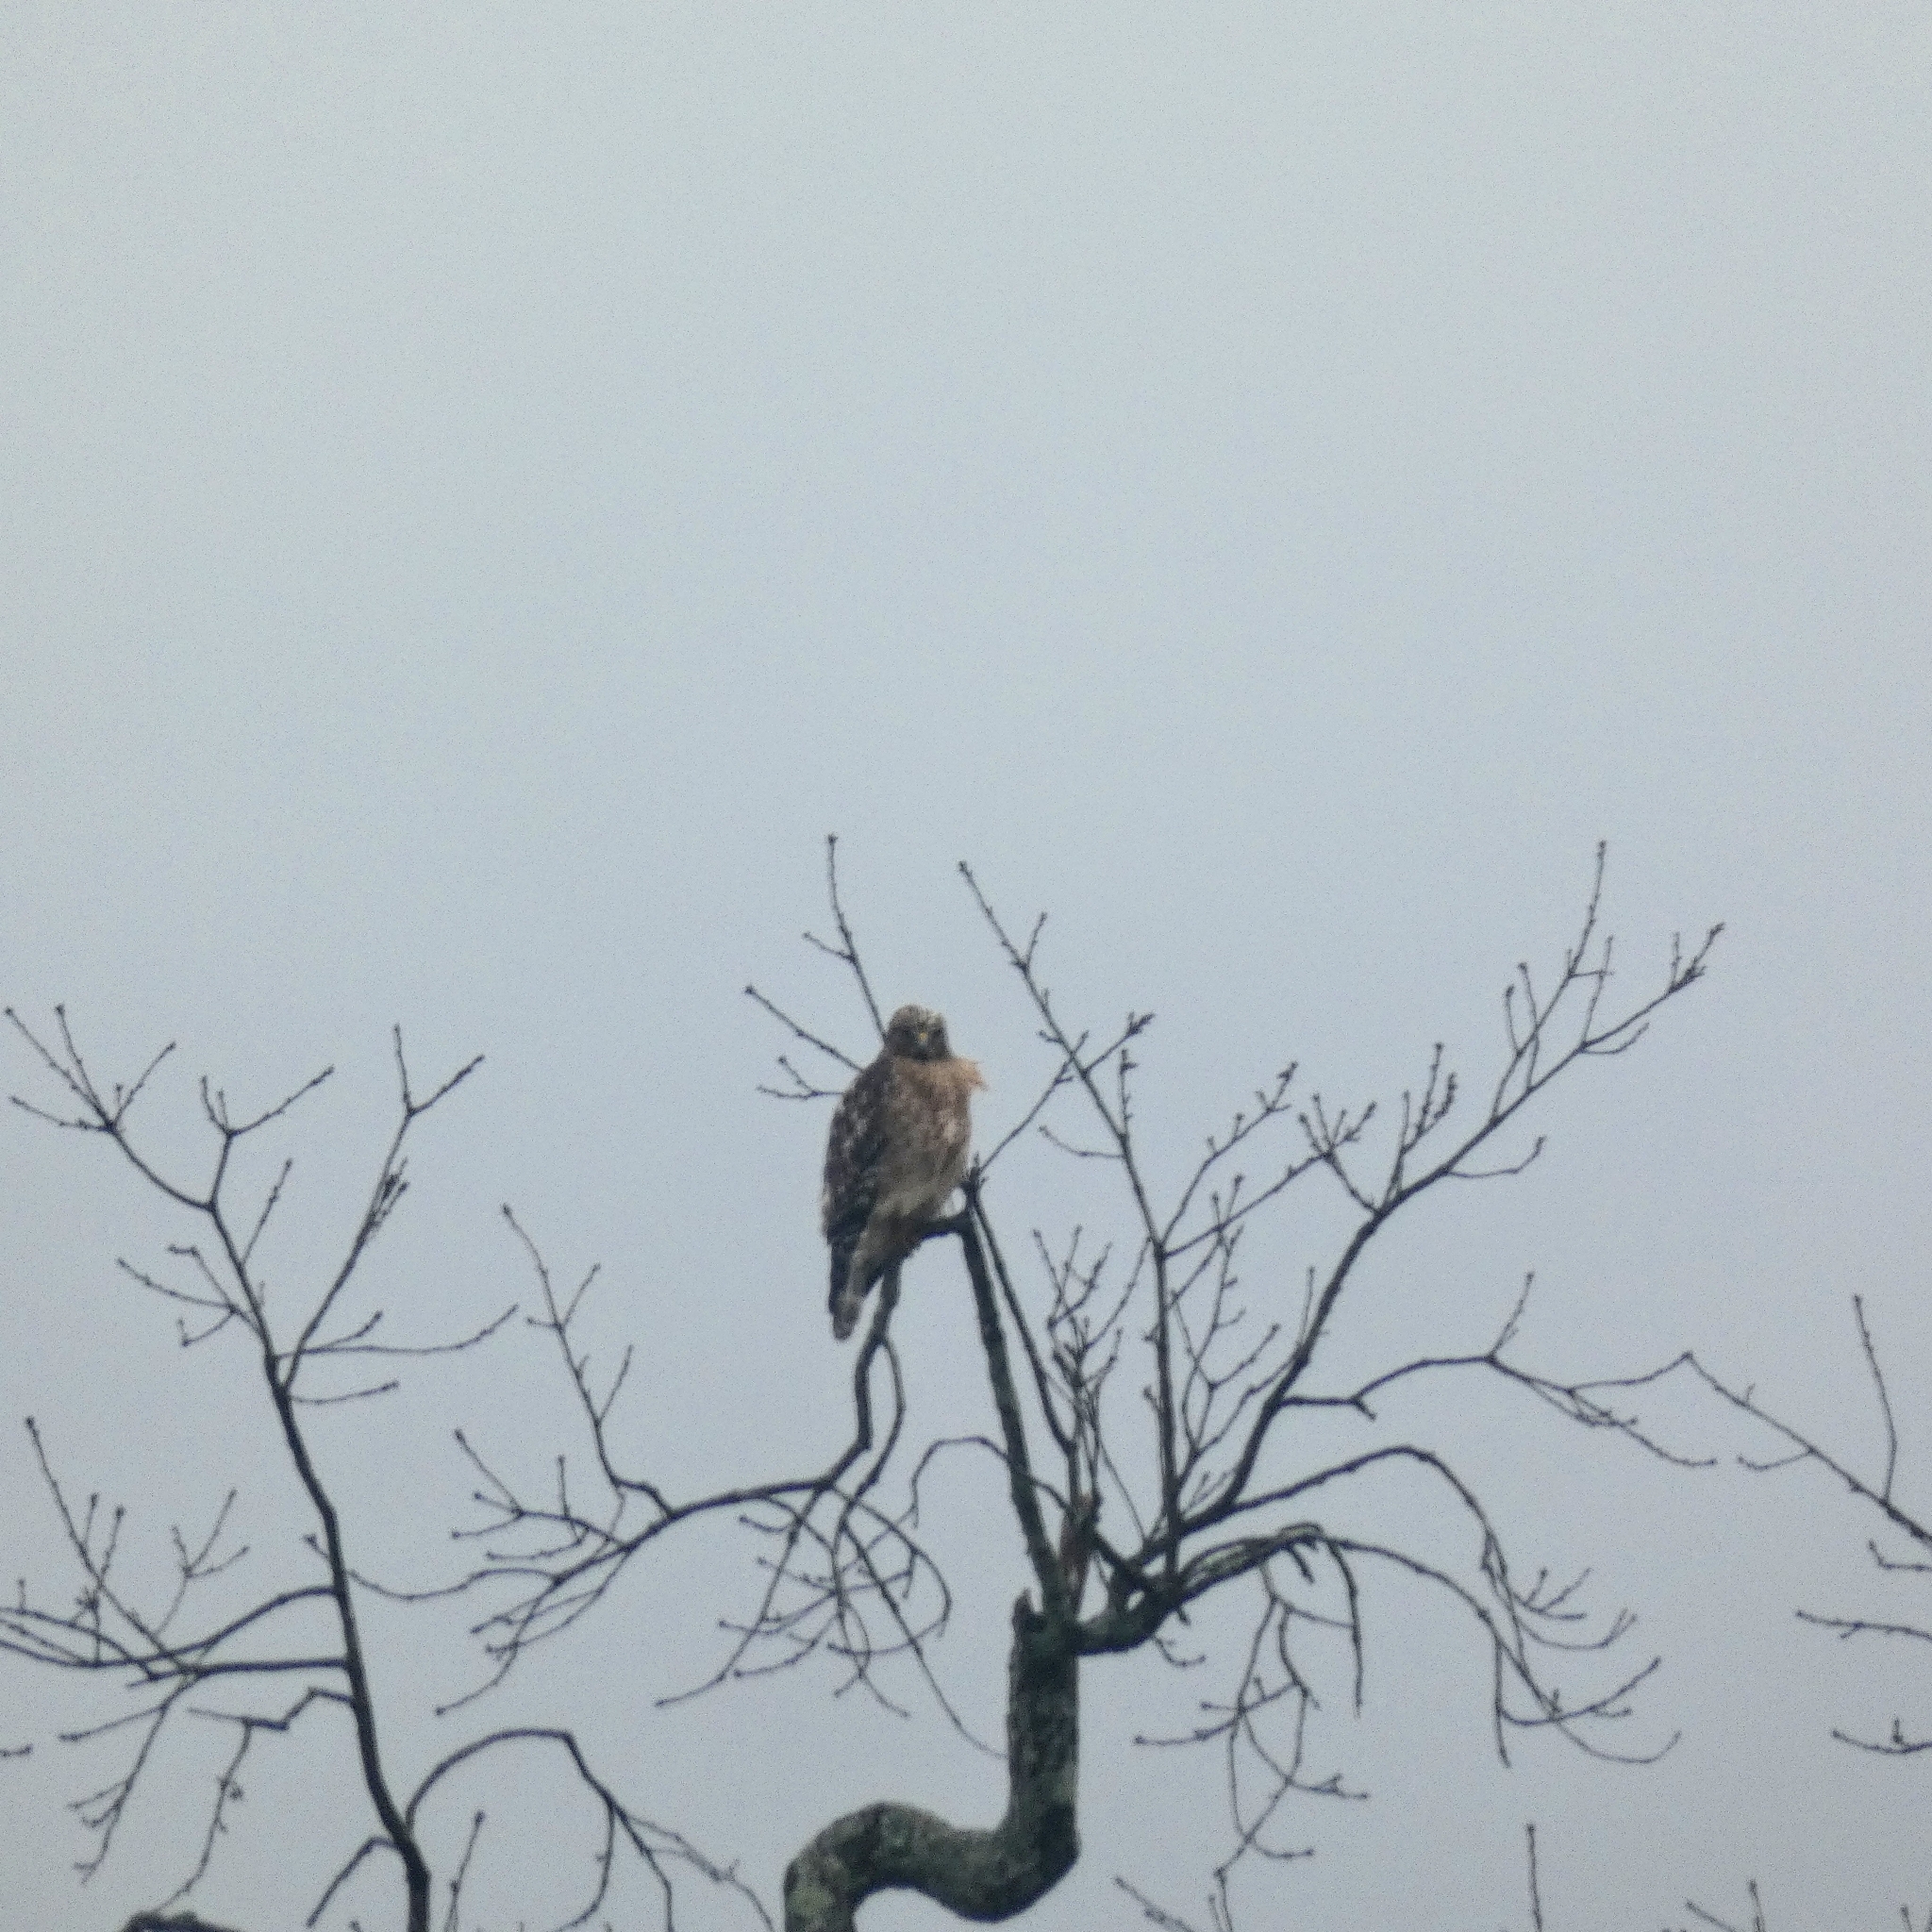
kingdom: Animalia
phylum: Chordata
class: Aves
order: Accipitriformes
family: Accipitridae
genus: Buteo
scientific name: Buteo lineatus
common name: Red-shouldered hawk
